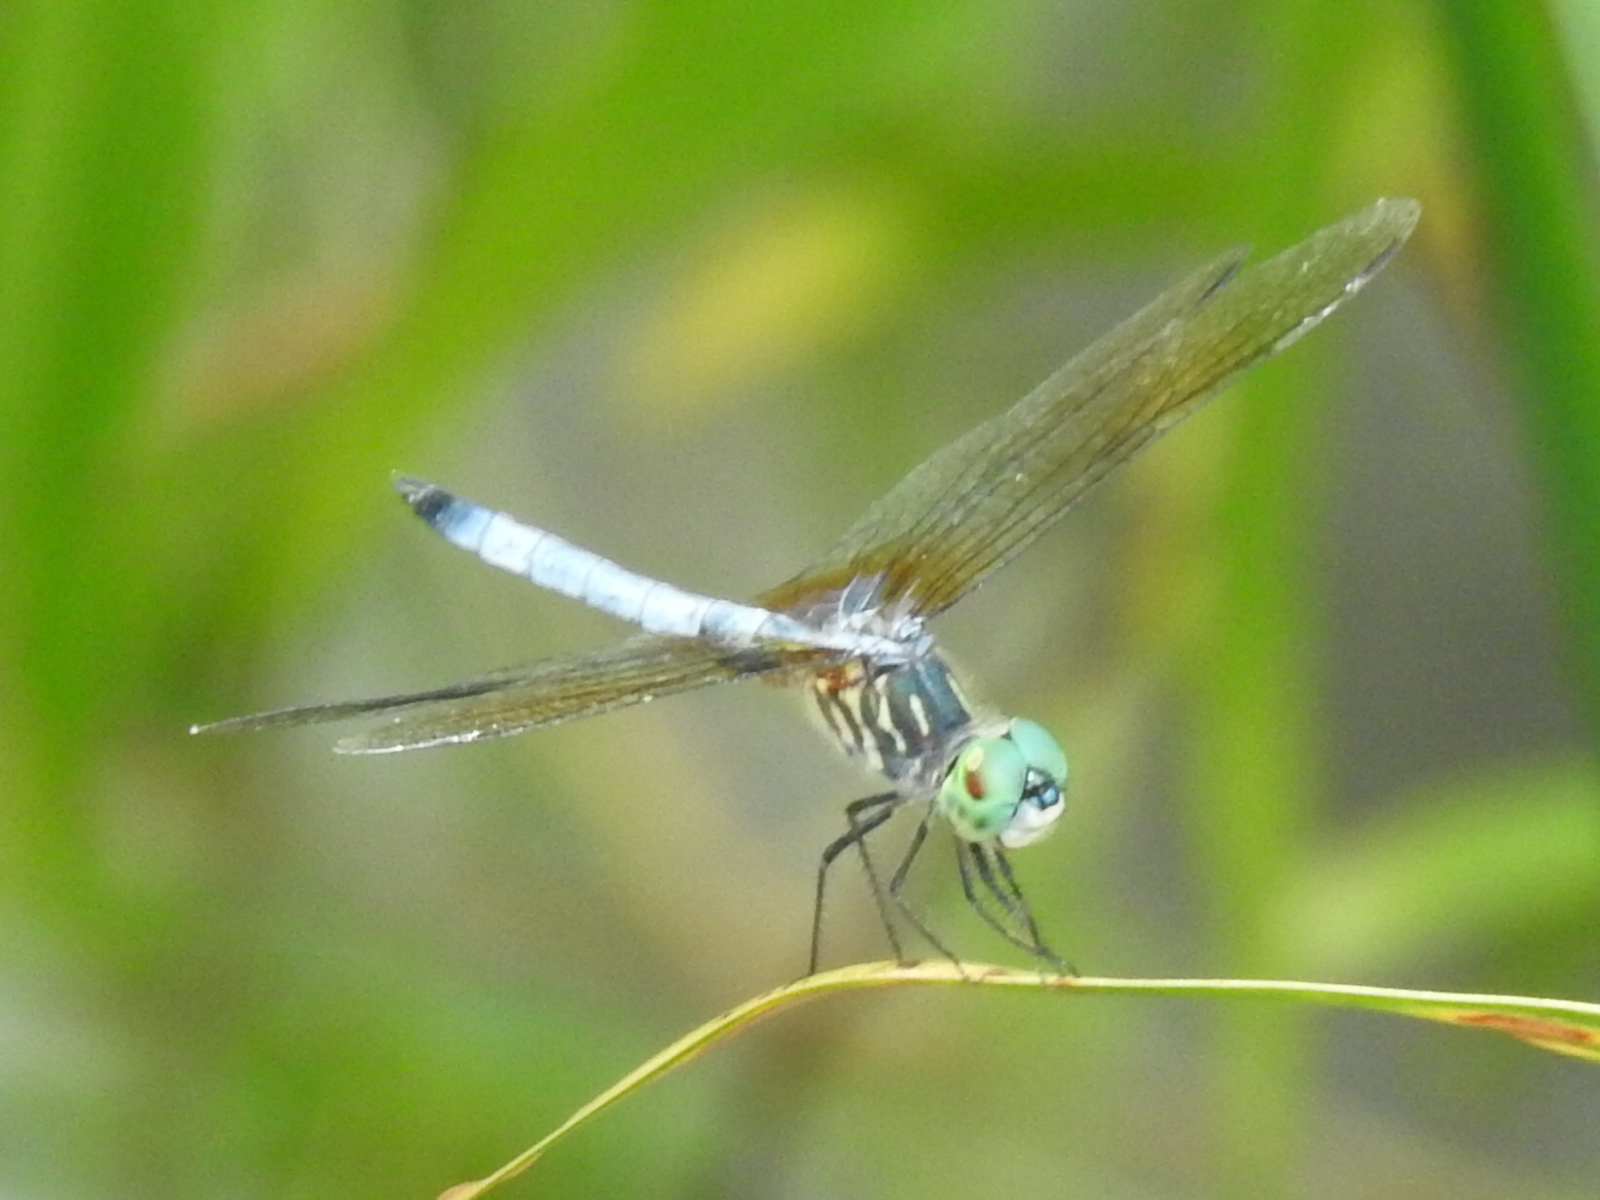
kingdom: Animalia
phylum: Arthropoda
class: Insecta
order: Odonata
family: Libellulidae
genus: Pachydiplax
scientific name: Pachydiplax longipennis
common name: Blue dasher
